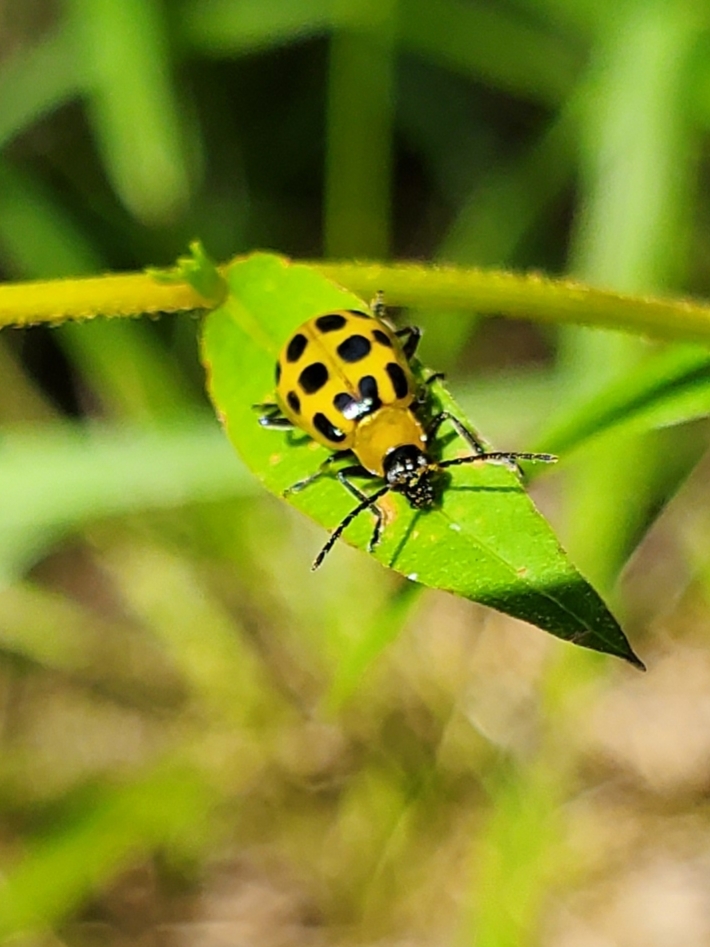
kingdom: Animalia
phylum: Arthropoda
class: Insecta
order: Coleoptera
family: Chrysomelidae
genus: Diabrotica
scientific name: Diabrotica undecimpunctata
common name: Spotted cucumber beetle
